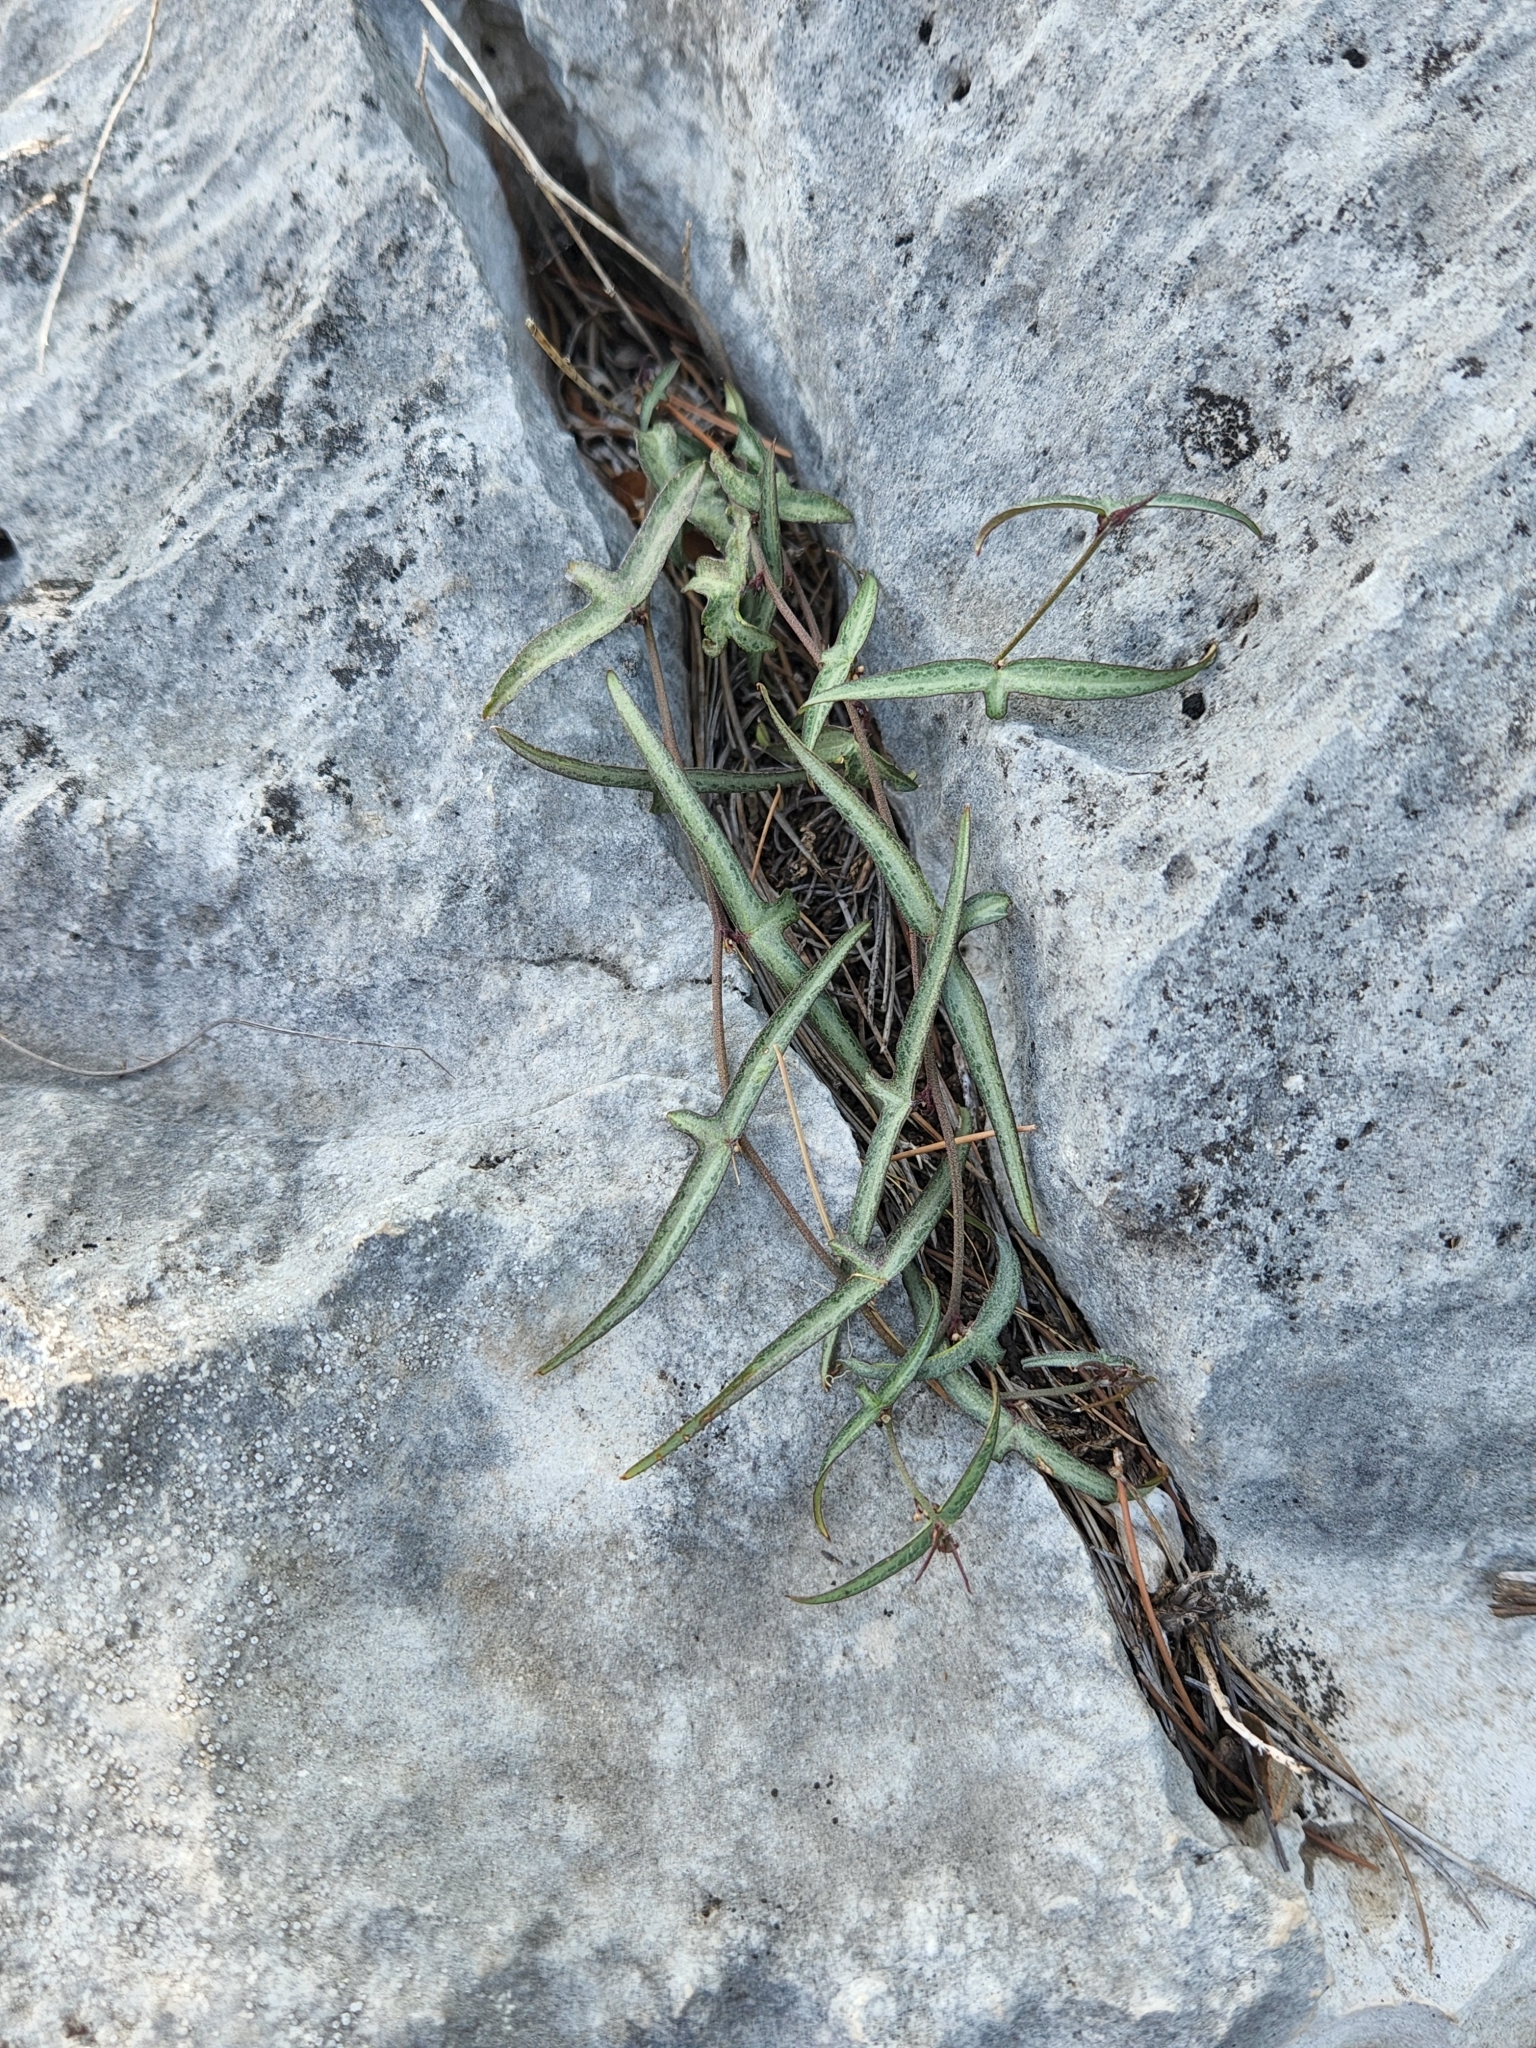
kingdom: Plantae
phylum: Tracheophyta
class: Magnoliopsida
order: Malpighiales
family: Passifloraceae
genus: Passiflora
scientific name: Passiflora tenuiloba
